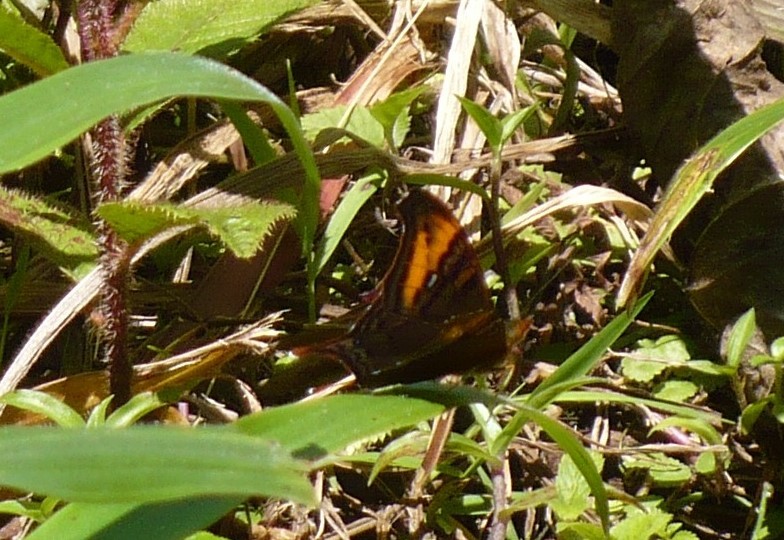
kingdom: Animalia
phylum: Arthropoda
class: Insecta
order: Lepidoptera
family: Nymphalidae
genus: Hypanartia
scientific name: Hypanartia dione
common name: Banded mapwing
